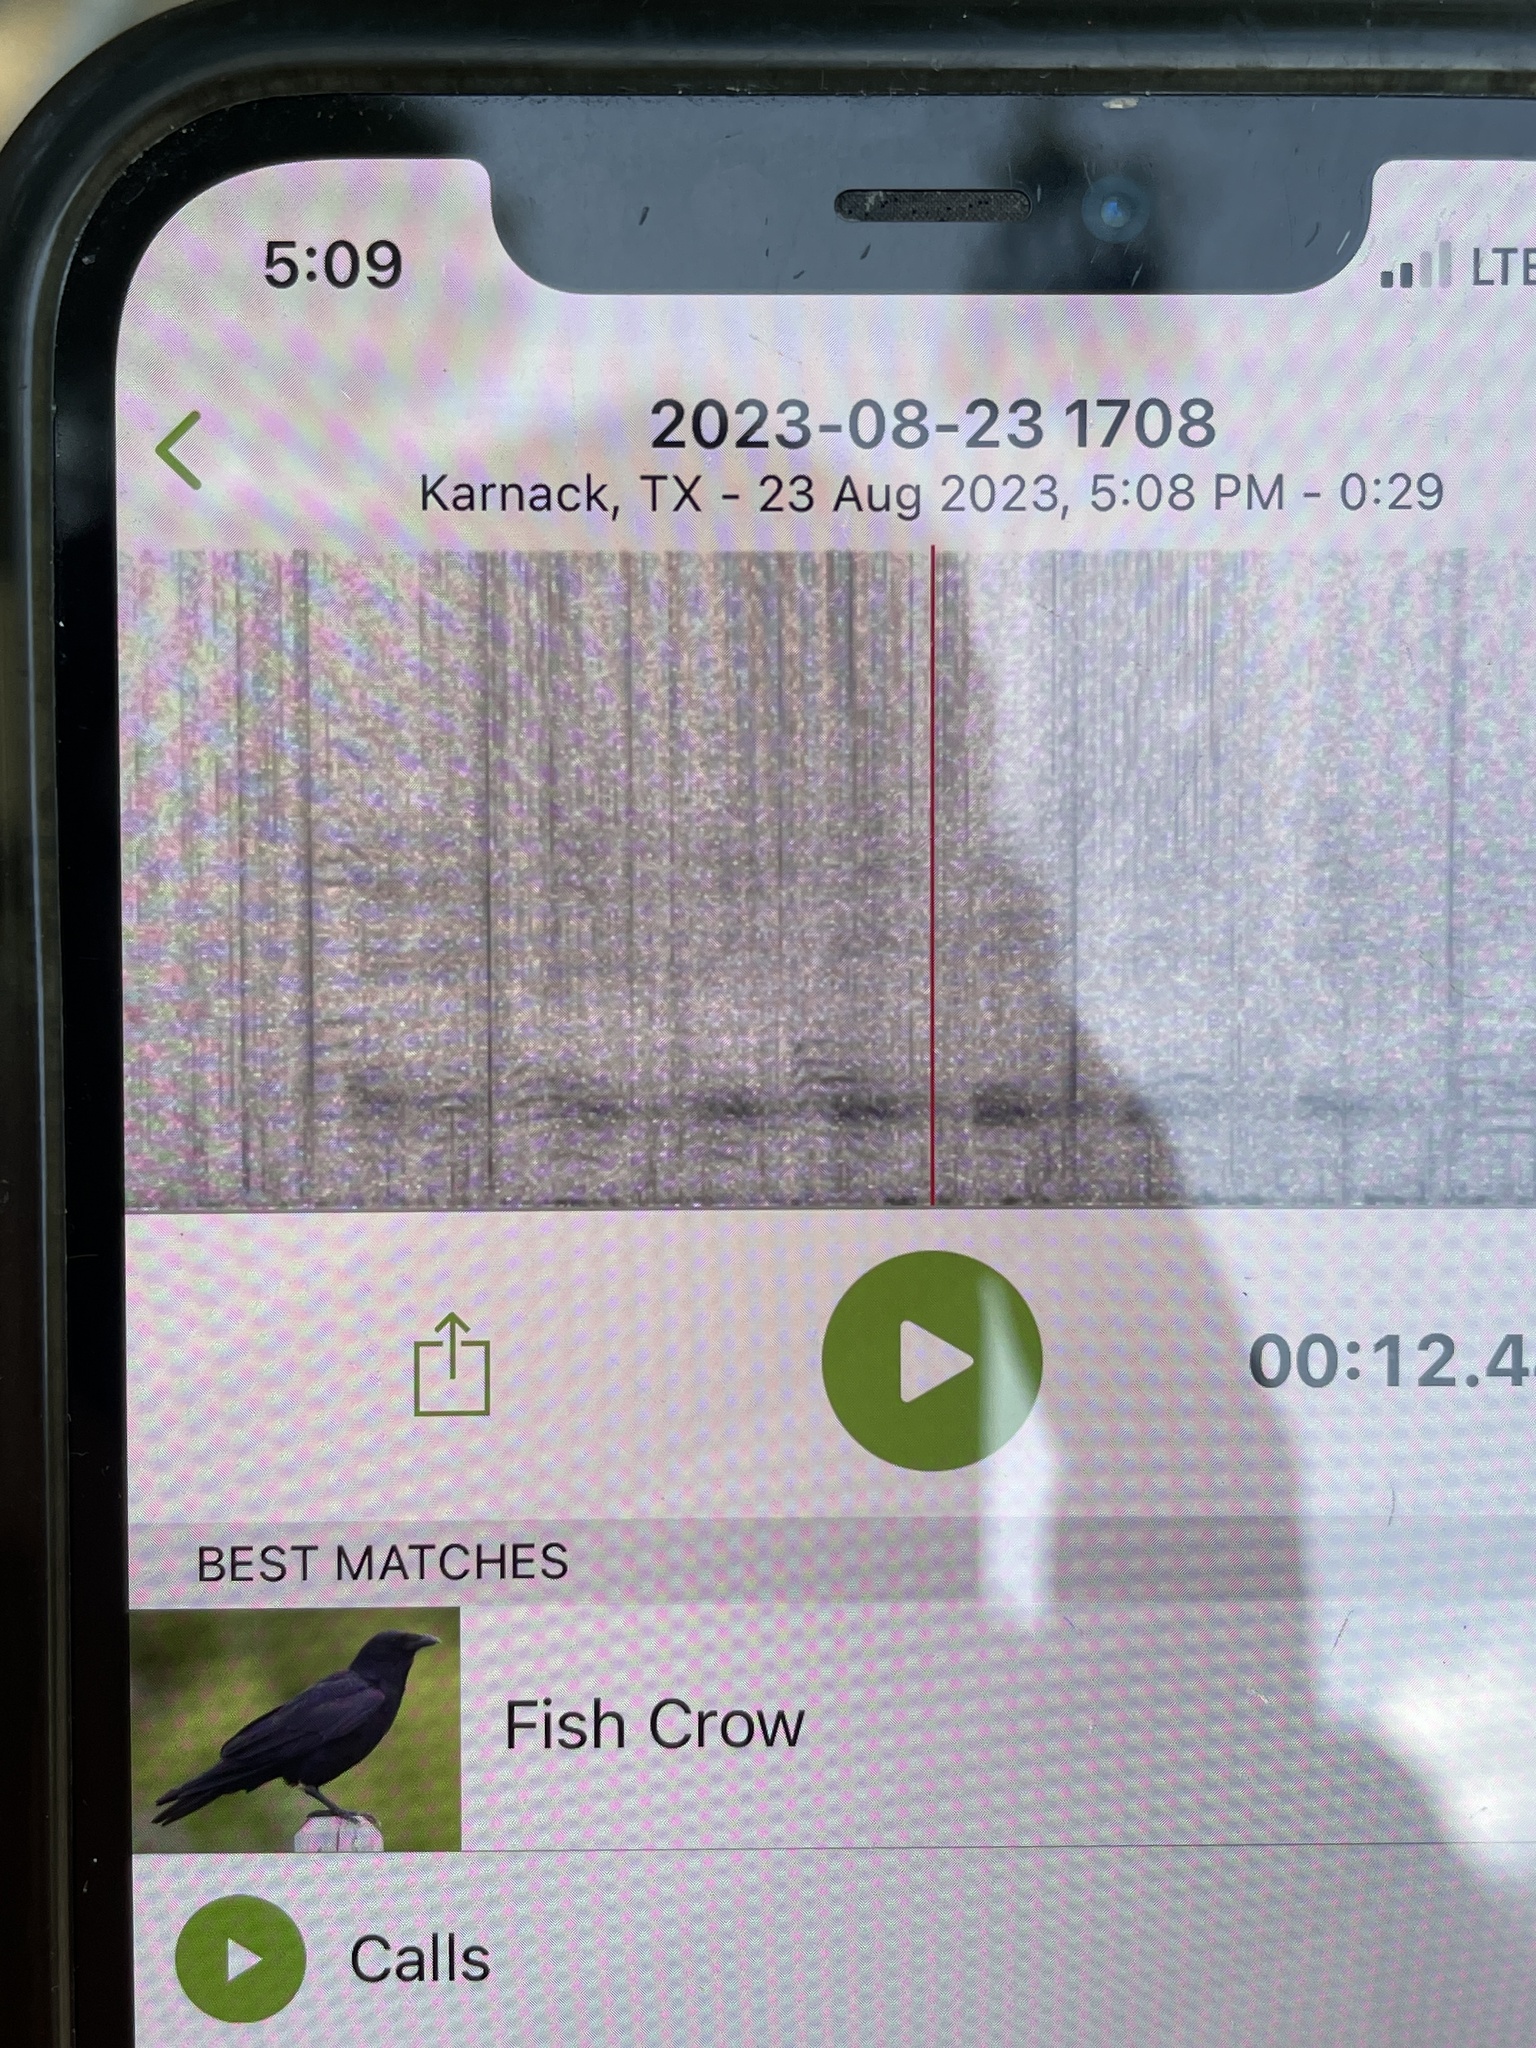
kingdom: Animalia
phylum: Chordata
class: Aves
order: Passeriformes
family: Corvidae
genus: Corvus
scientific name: Corvus ossifragus
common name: Fish crow
